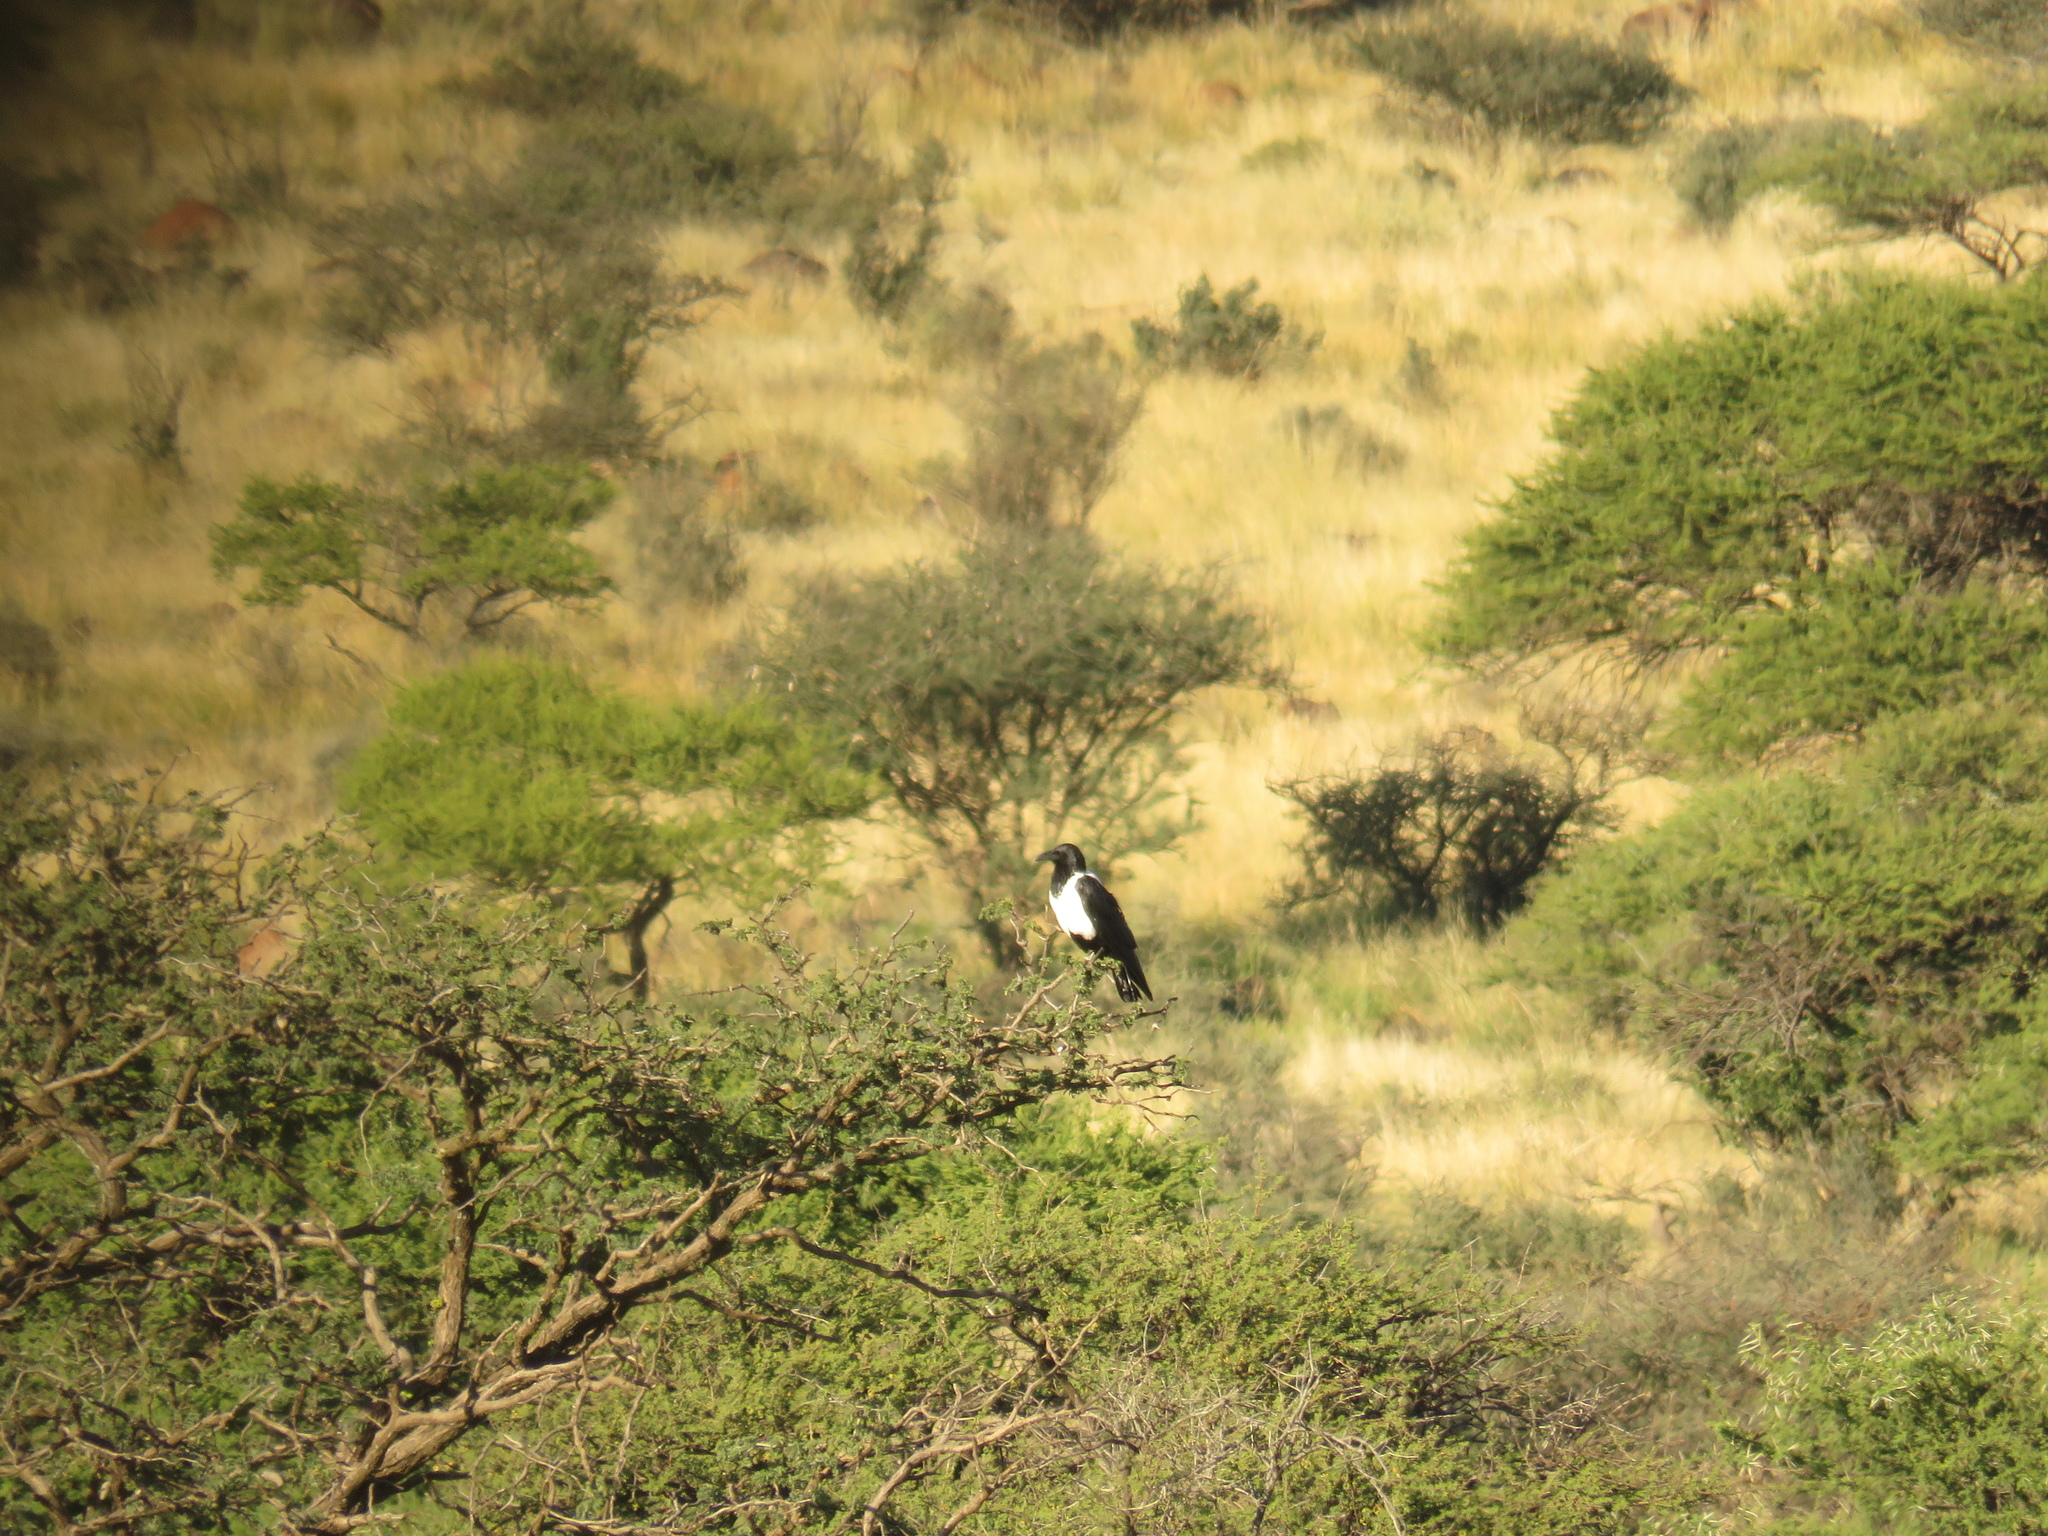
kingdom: Animalia
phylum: Chordata
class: Aves
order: Passeriformes
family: Corvidae
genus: Corvus
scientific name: Corvus albus
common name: Pied crow
